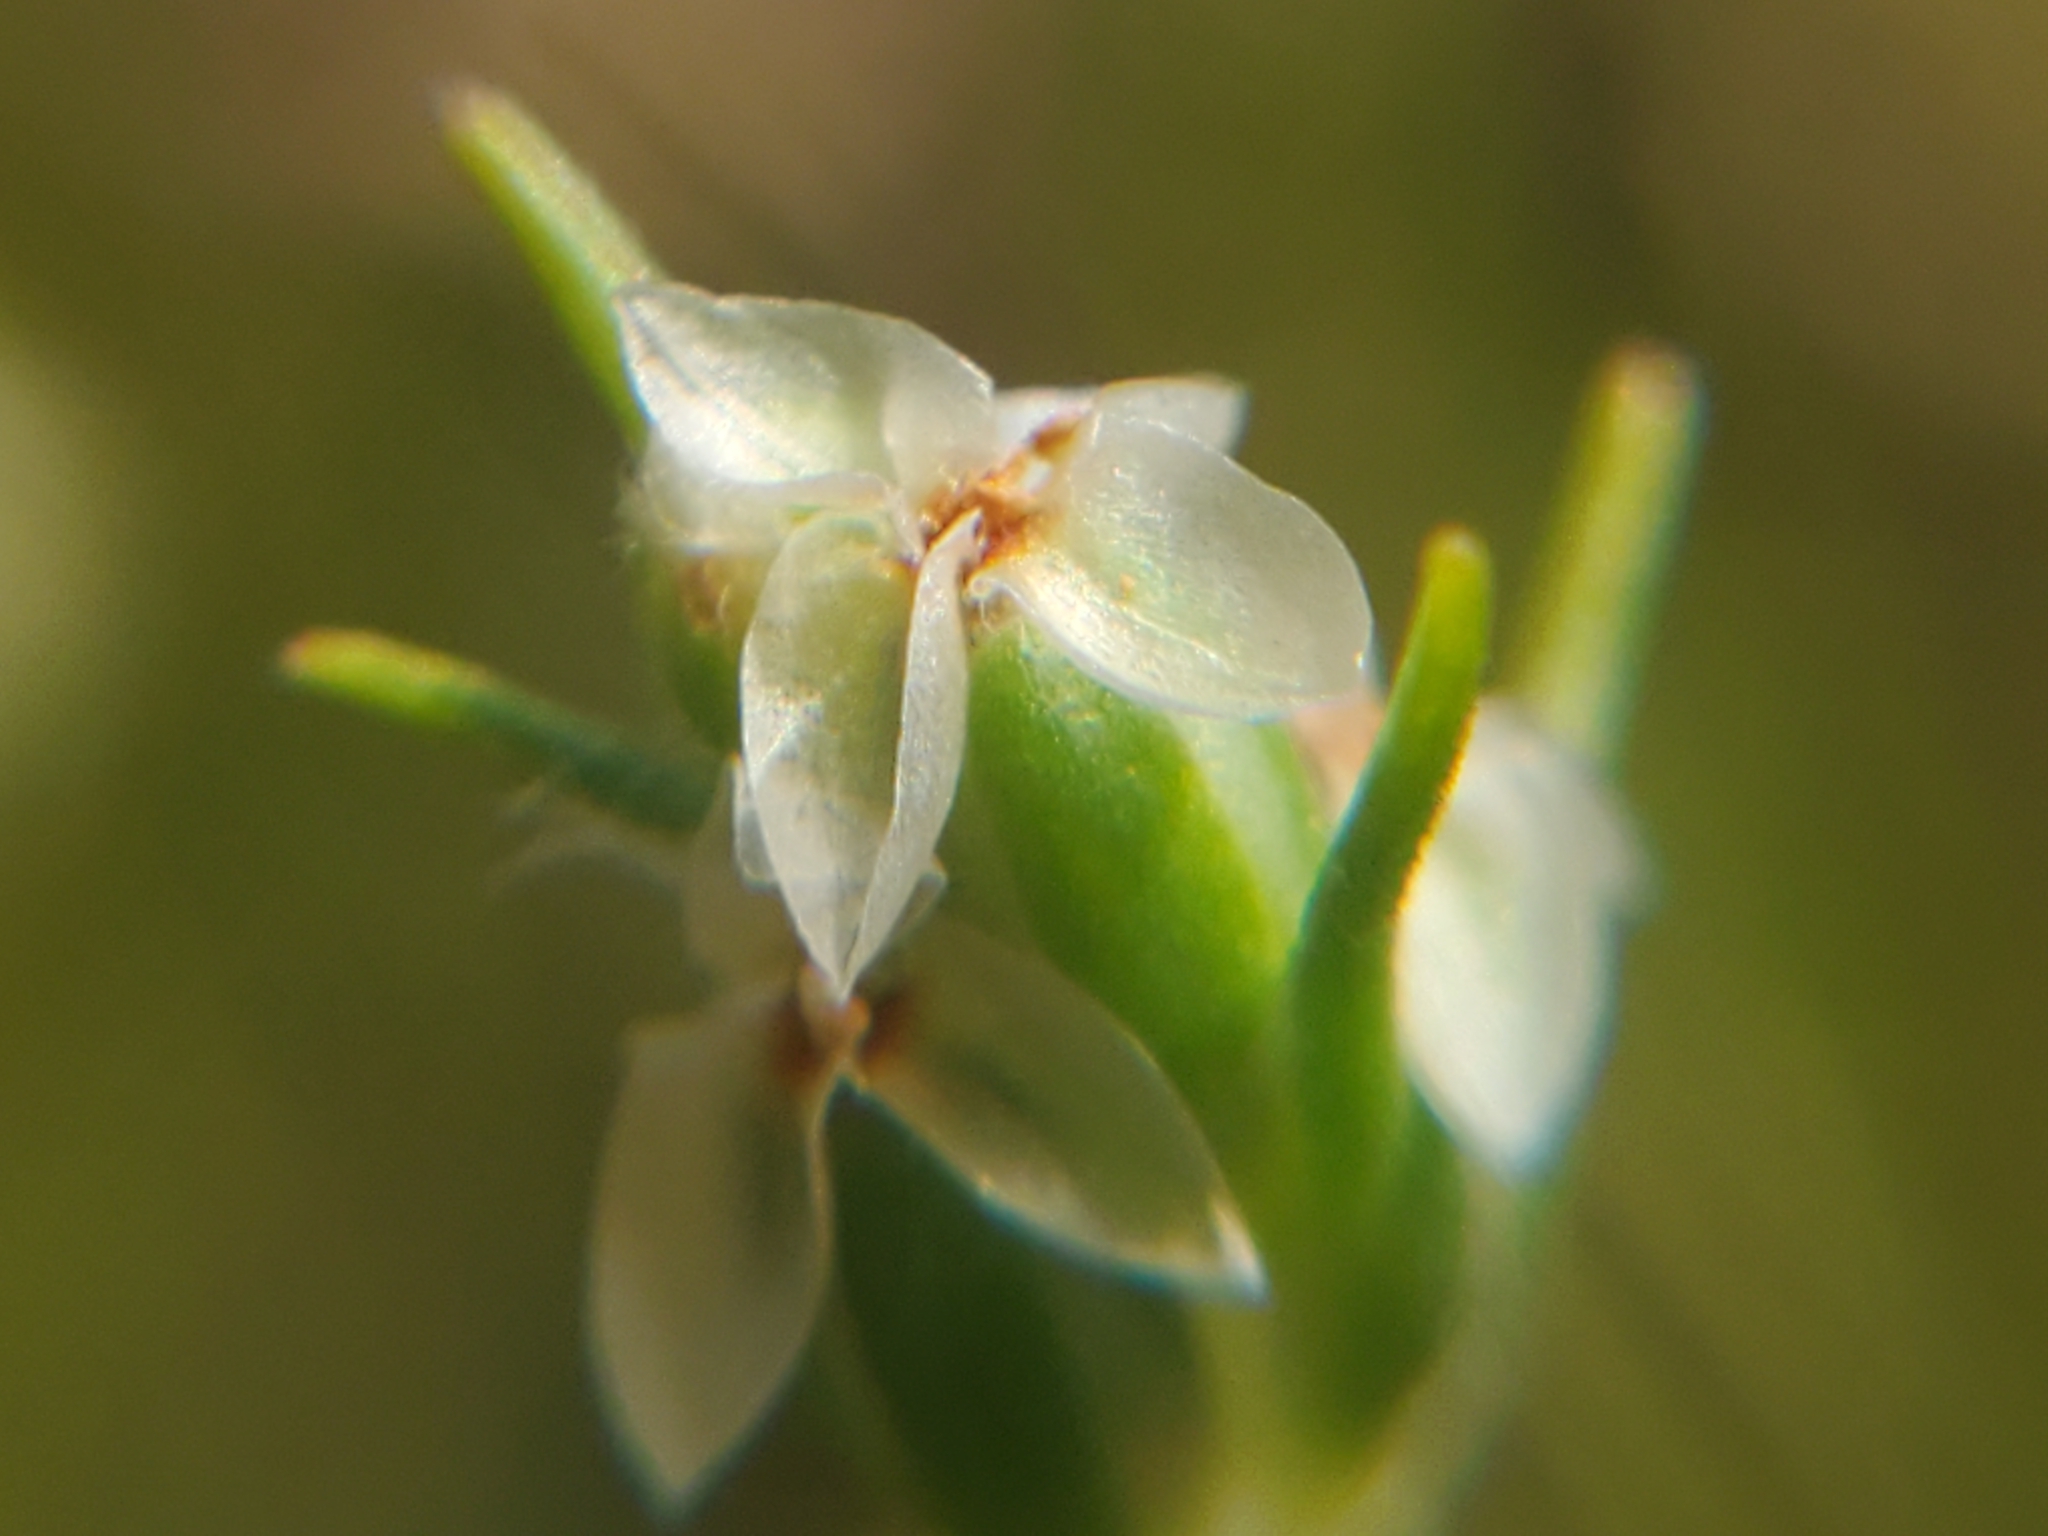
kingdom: Plantae
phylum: Tracheophyta
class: Magnoliopsida
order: Lamiales
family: Plantaginaceae
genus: Plantago
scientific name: Plantago aristata
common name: Bracted plantain
